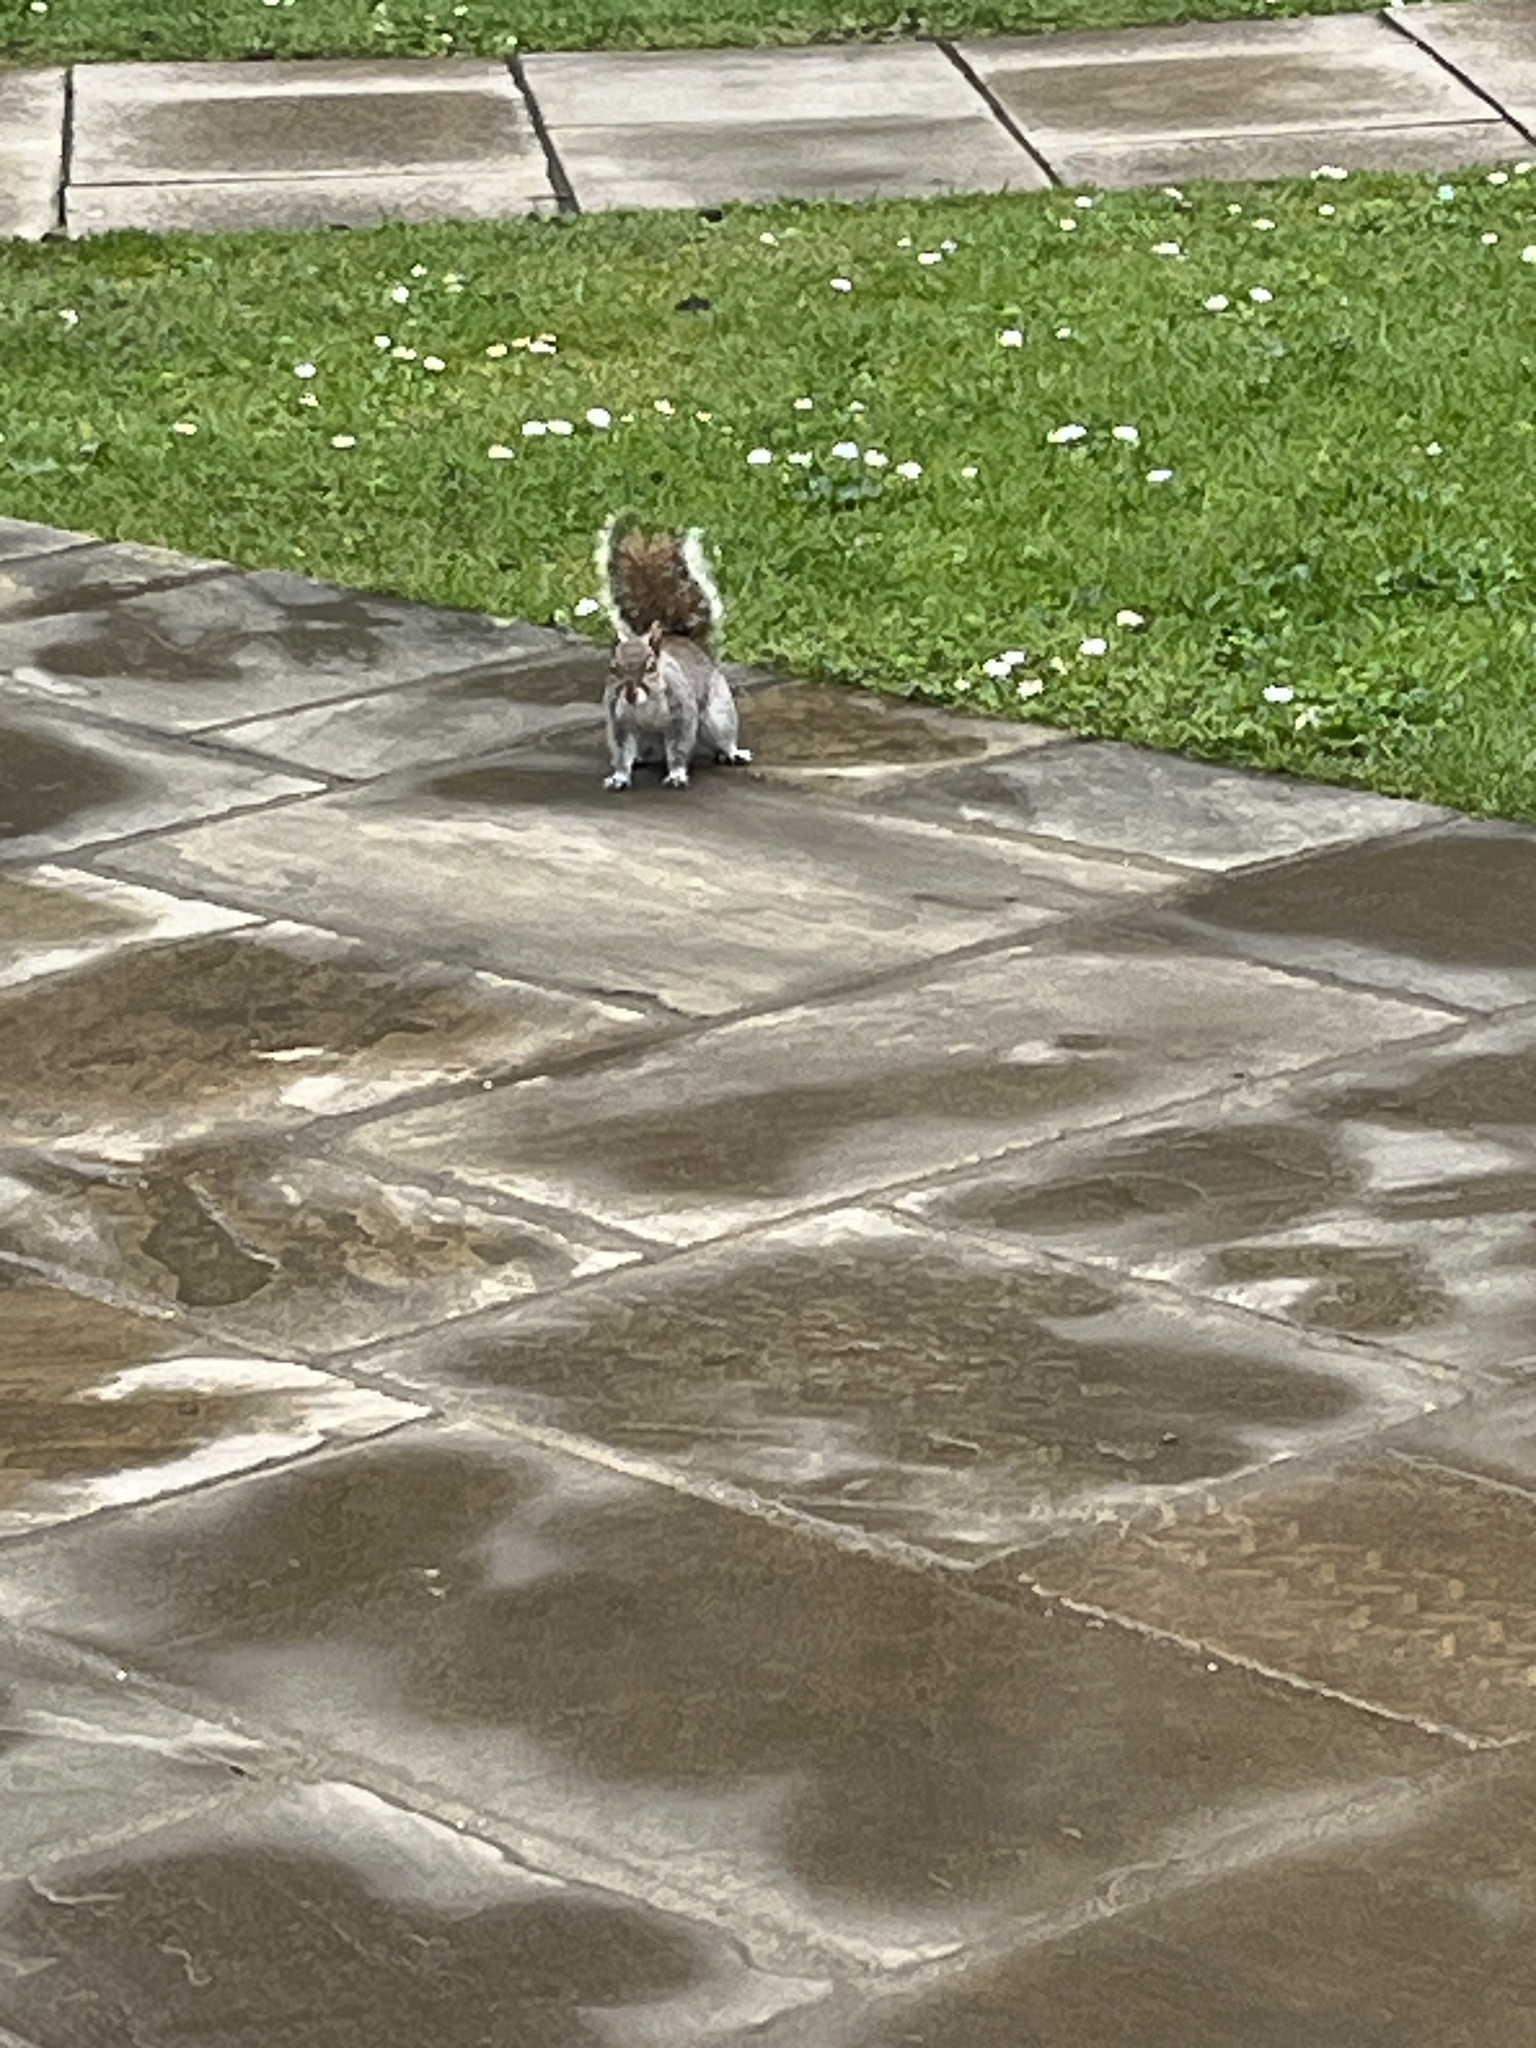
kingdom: Animalia
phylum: Chordata
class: Mammalia
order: Rodentia
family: Sciuridae
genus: Sciurus
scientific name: Sciurus carolinensis
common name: Eastern gray squirrel
